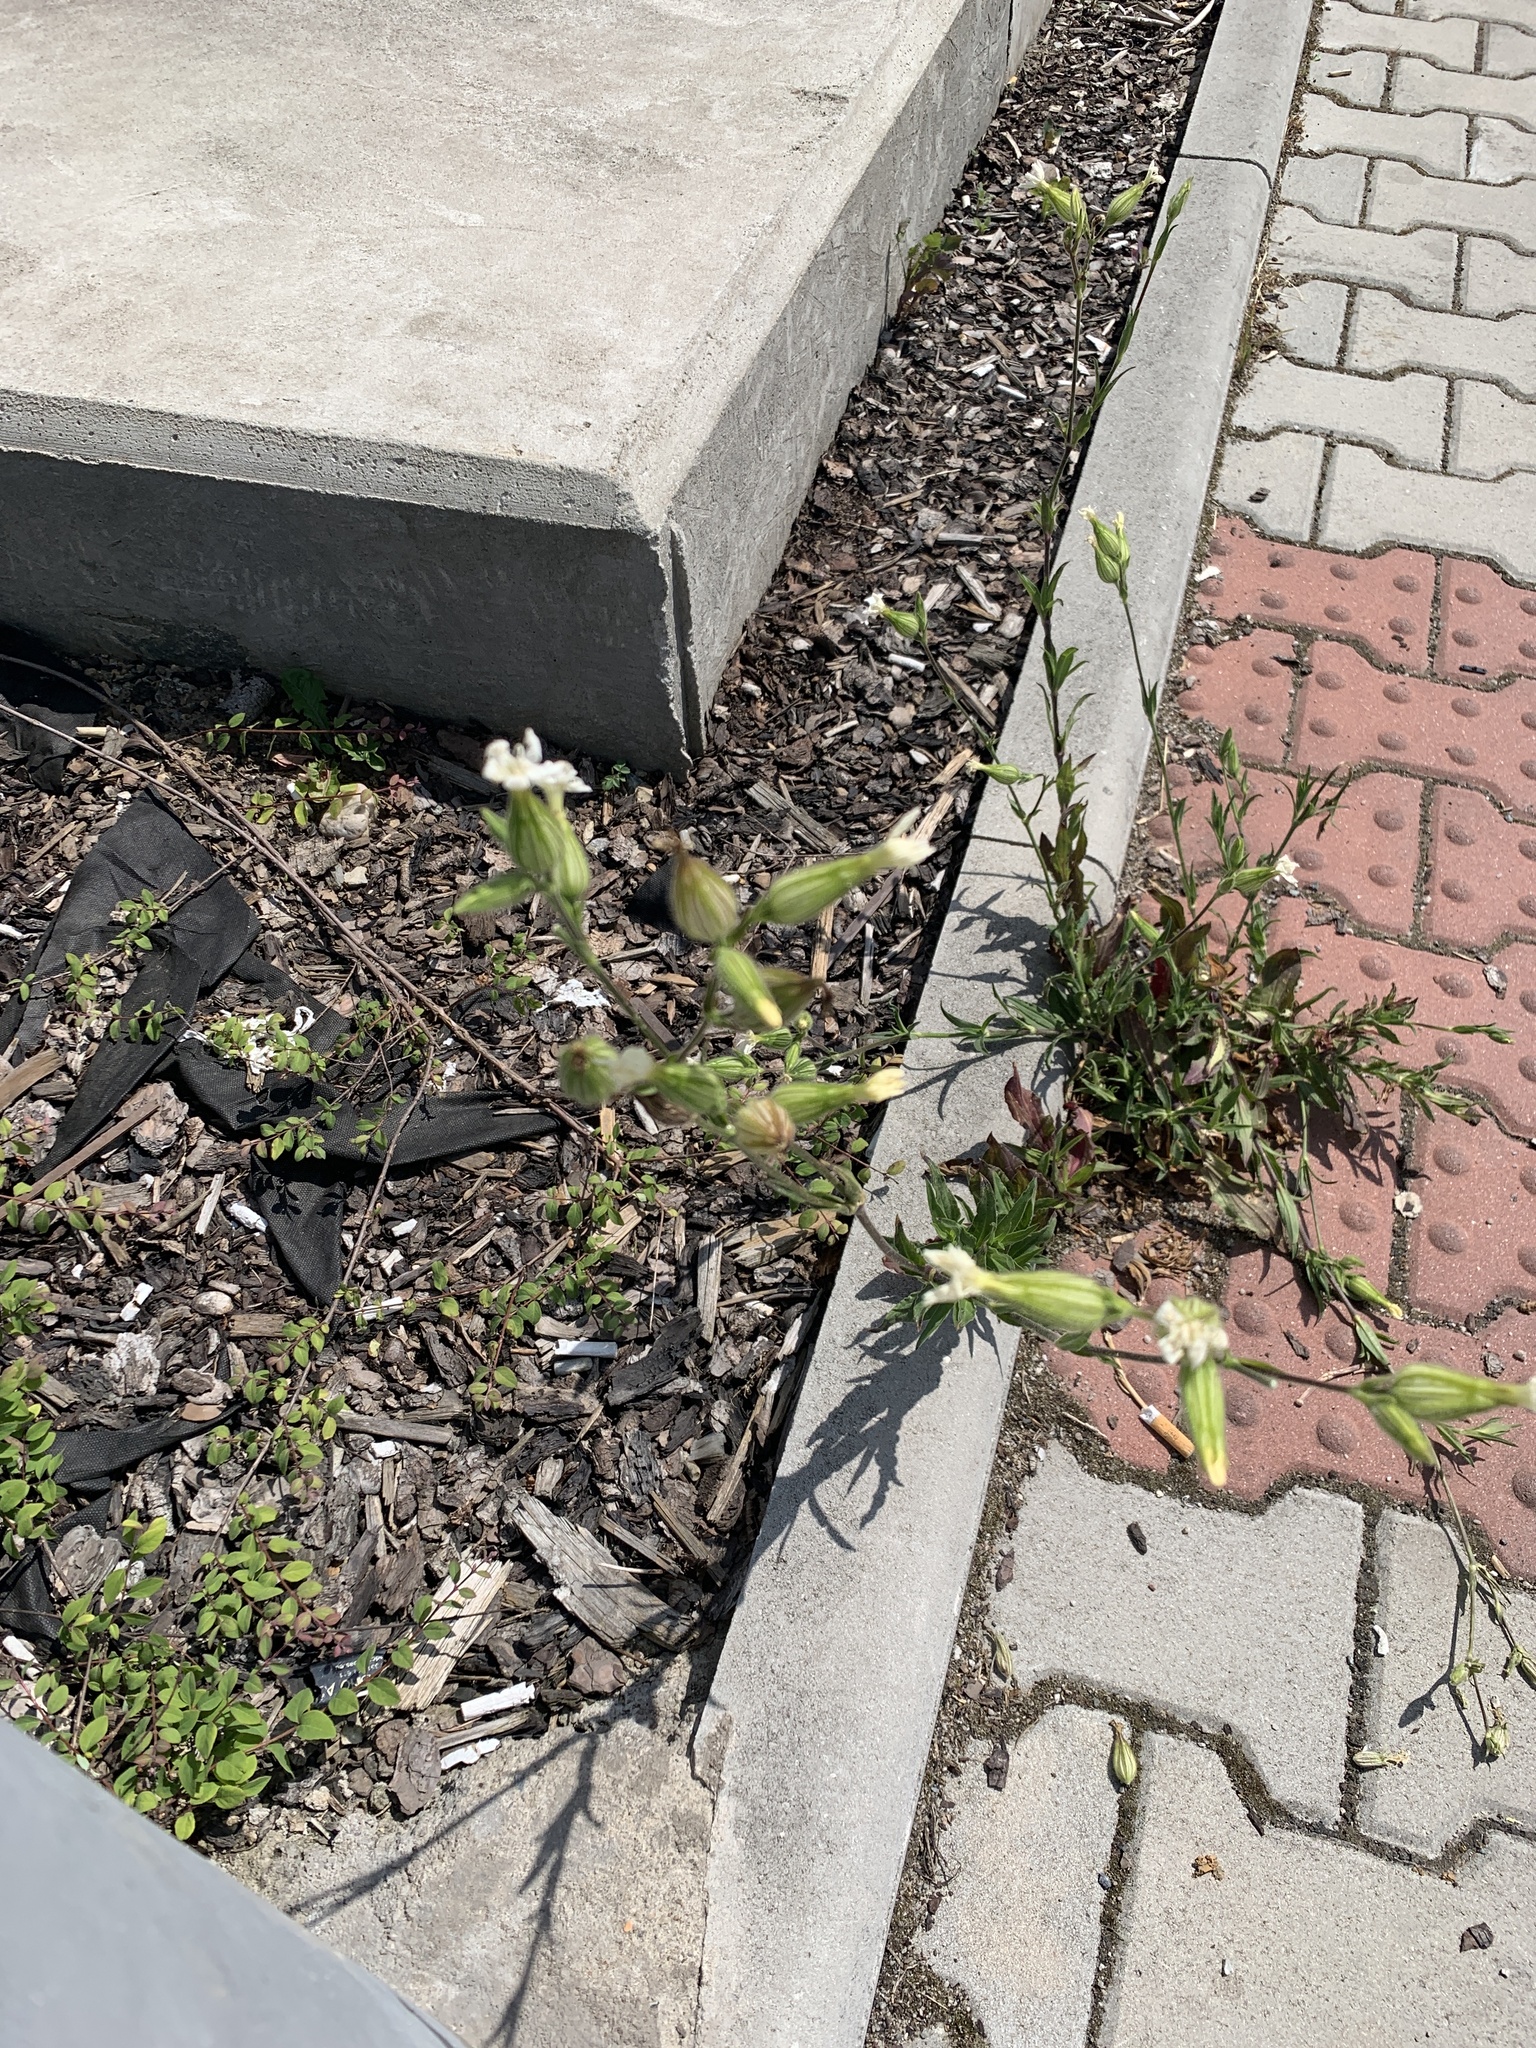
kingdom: Plantae
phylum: Tracheophyta
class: Magnoliopsida
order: Caryophyllales
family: Caryophyllaceae
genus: Silene
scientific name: Silene latifolia
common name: White campion
